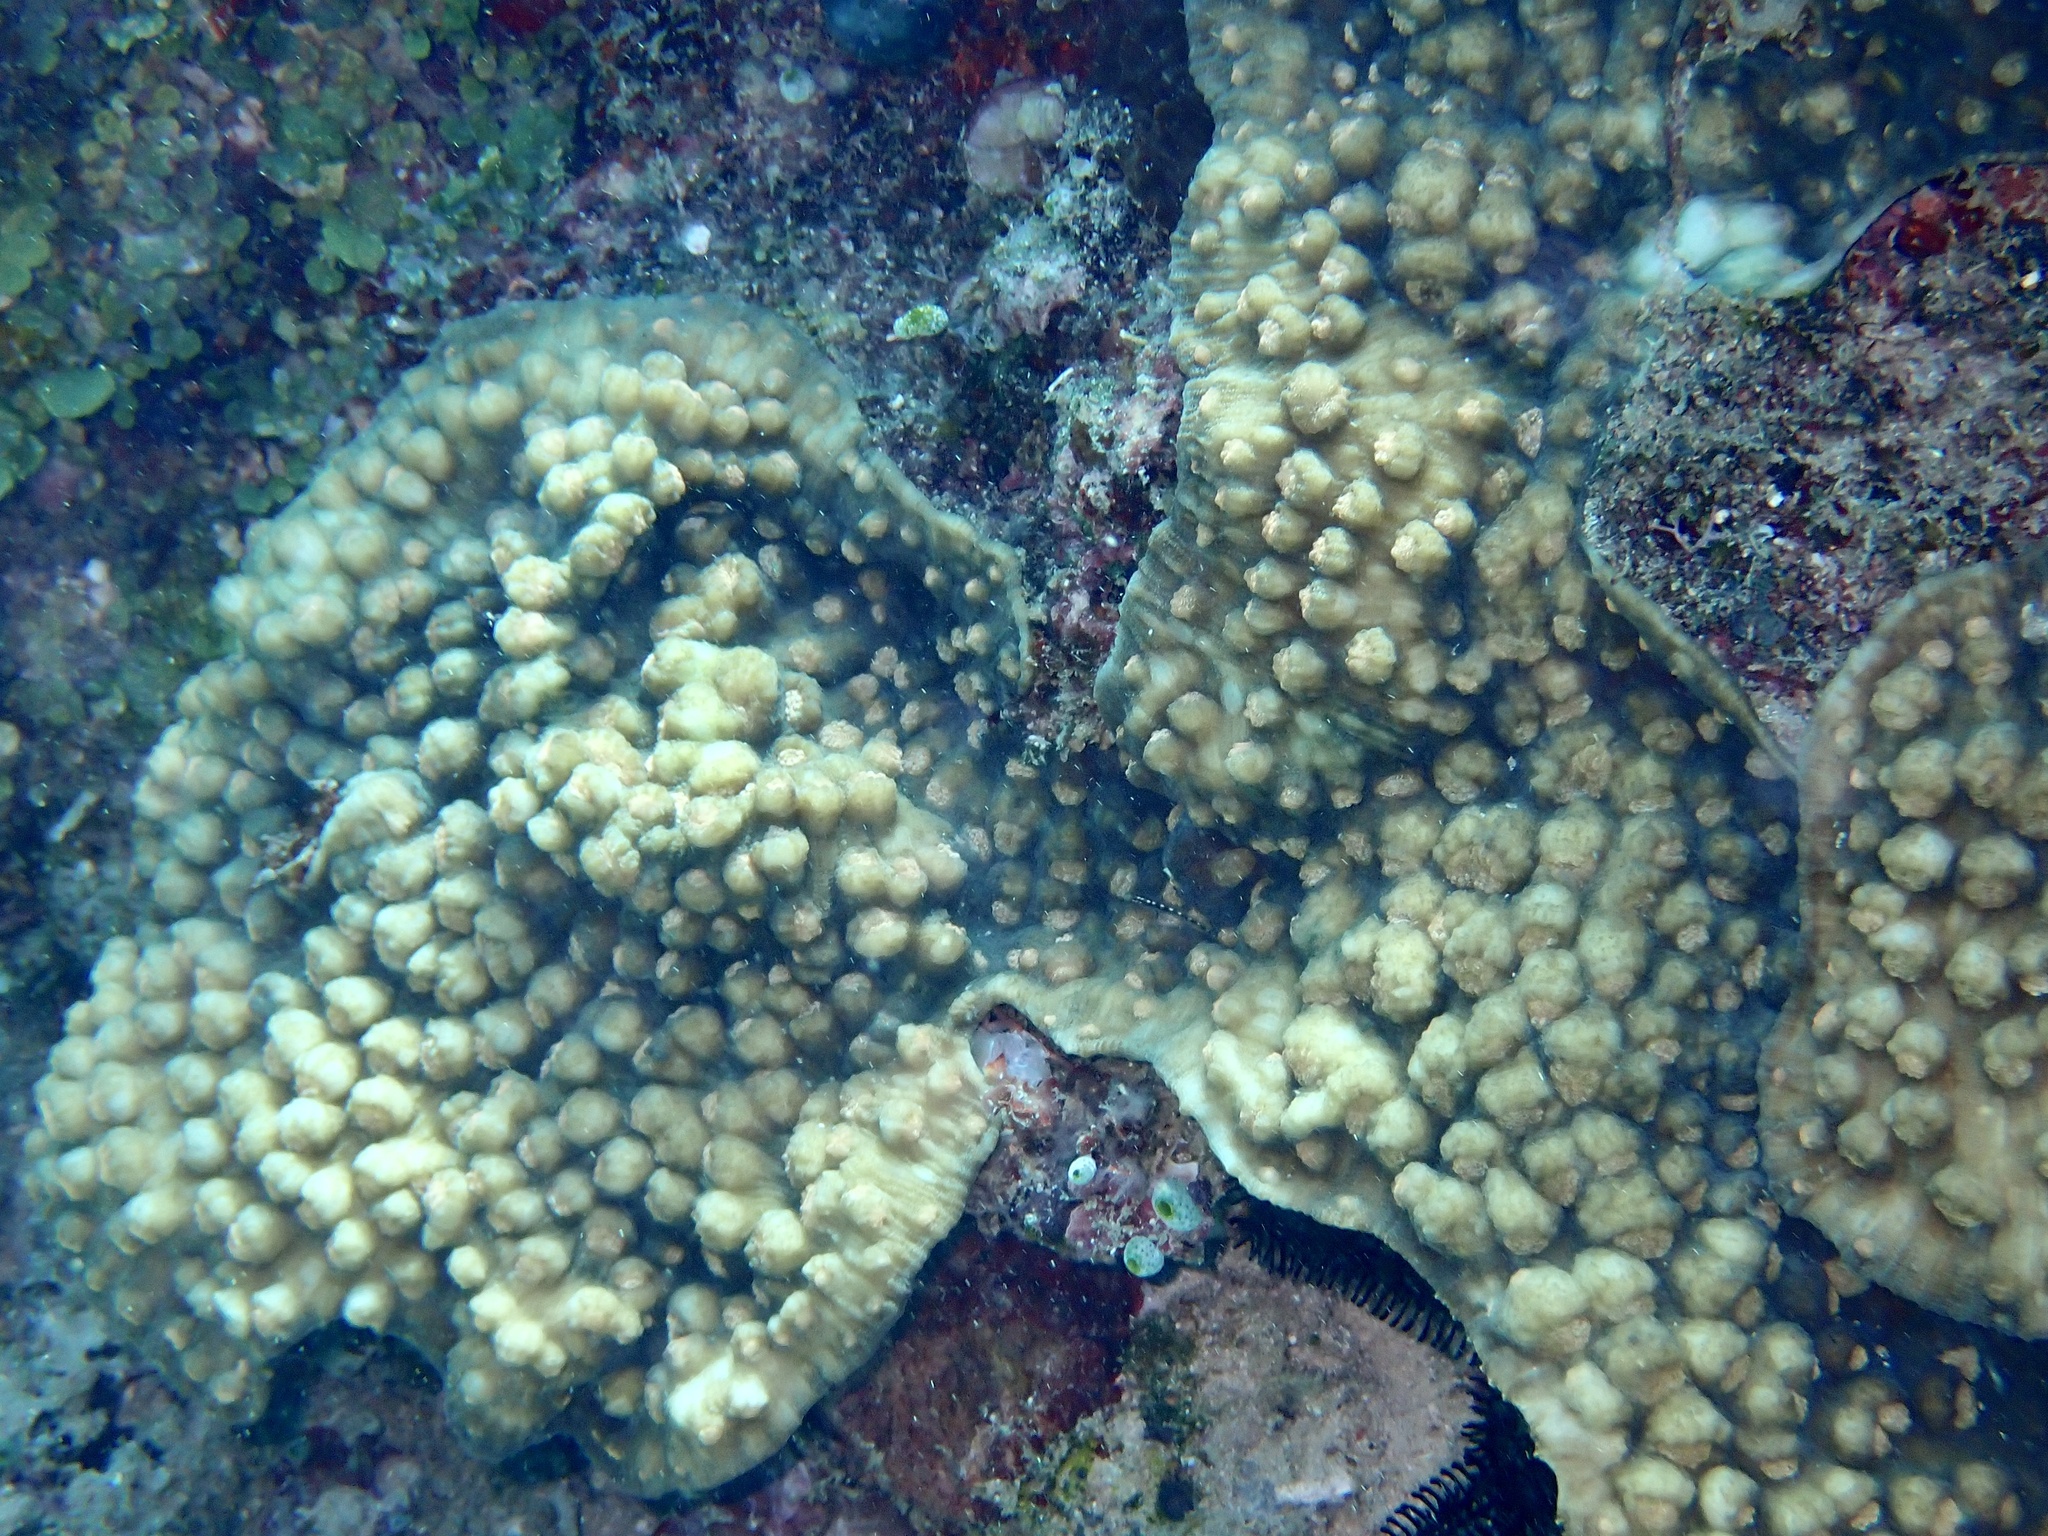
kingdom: Animalia
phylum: Cnidaria
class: Anthozoa
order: Scleractinia
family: Merulinidae
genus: Mycedium
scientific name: Mycedium elephantotus
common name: Chinese lettuce coral
